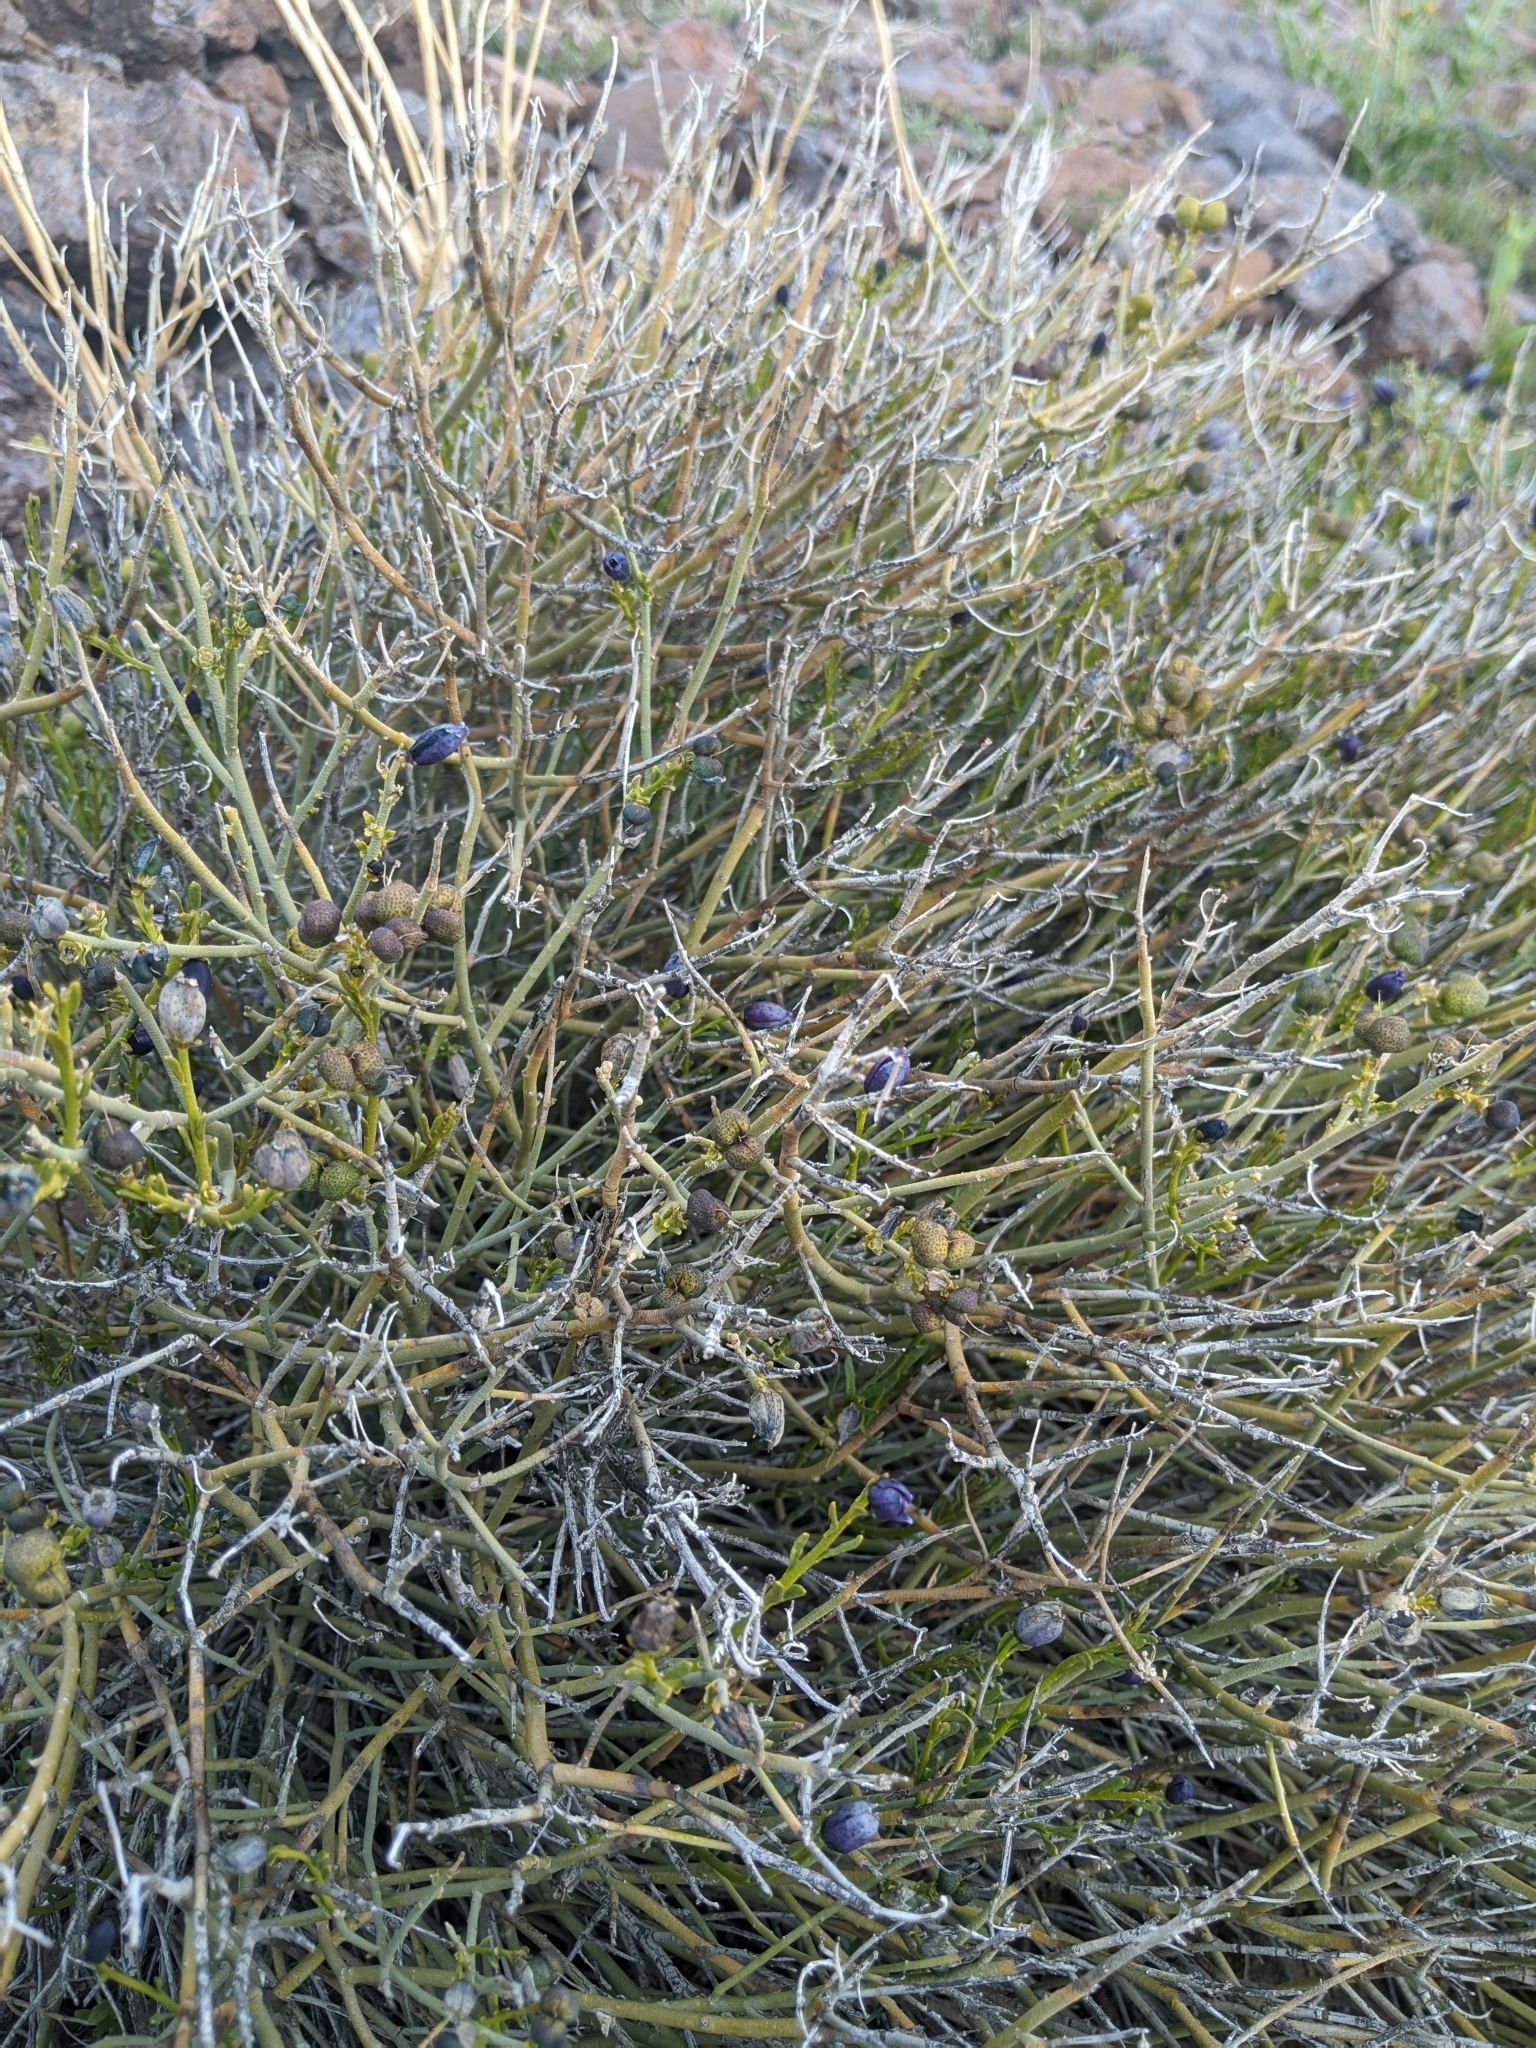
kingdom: Plantae
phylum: Tracheophyta
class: Magnoliopsida
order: Sapindales
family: Rutaceae
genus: Thamnosma
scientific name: Thamnosma montana
